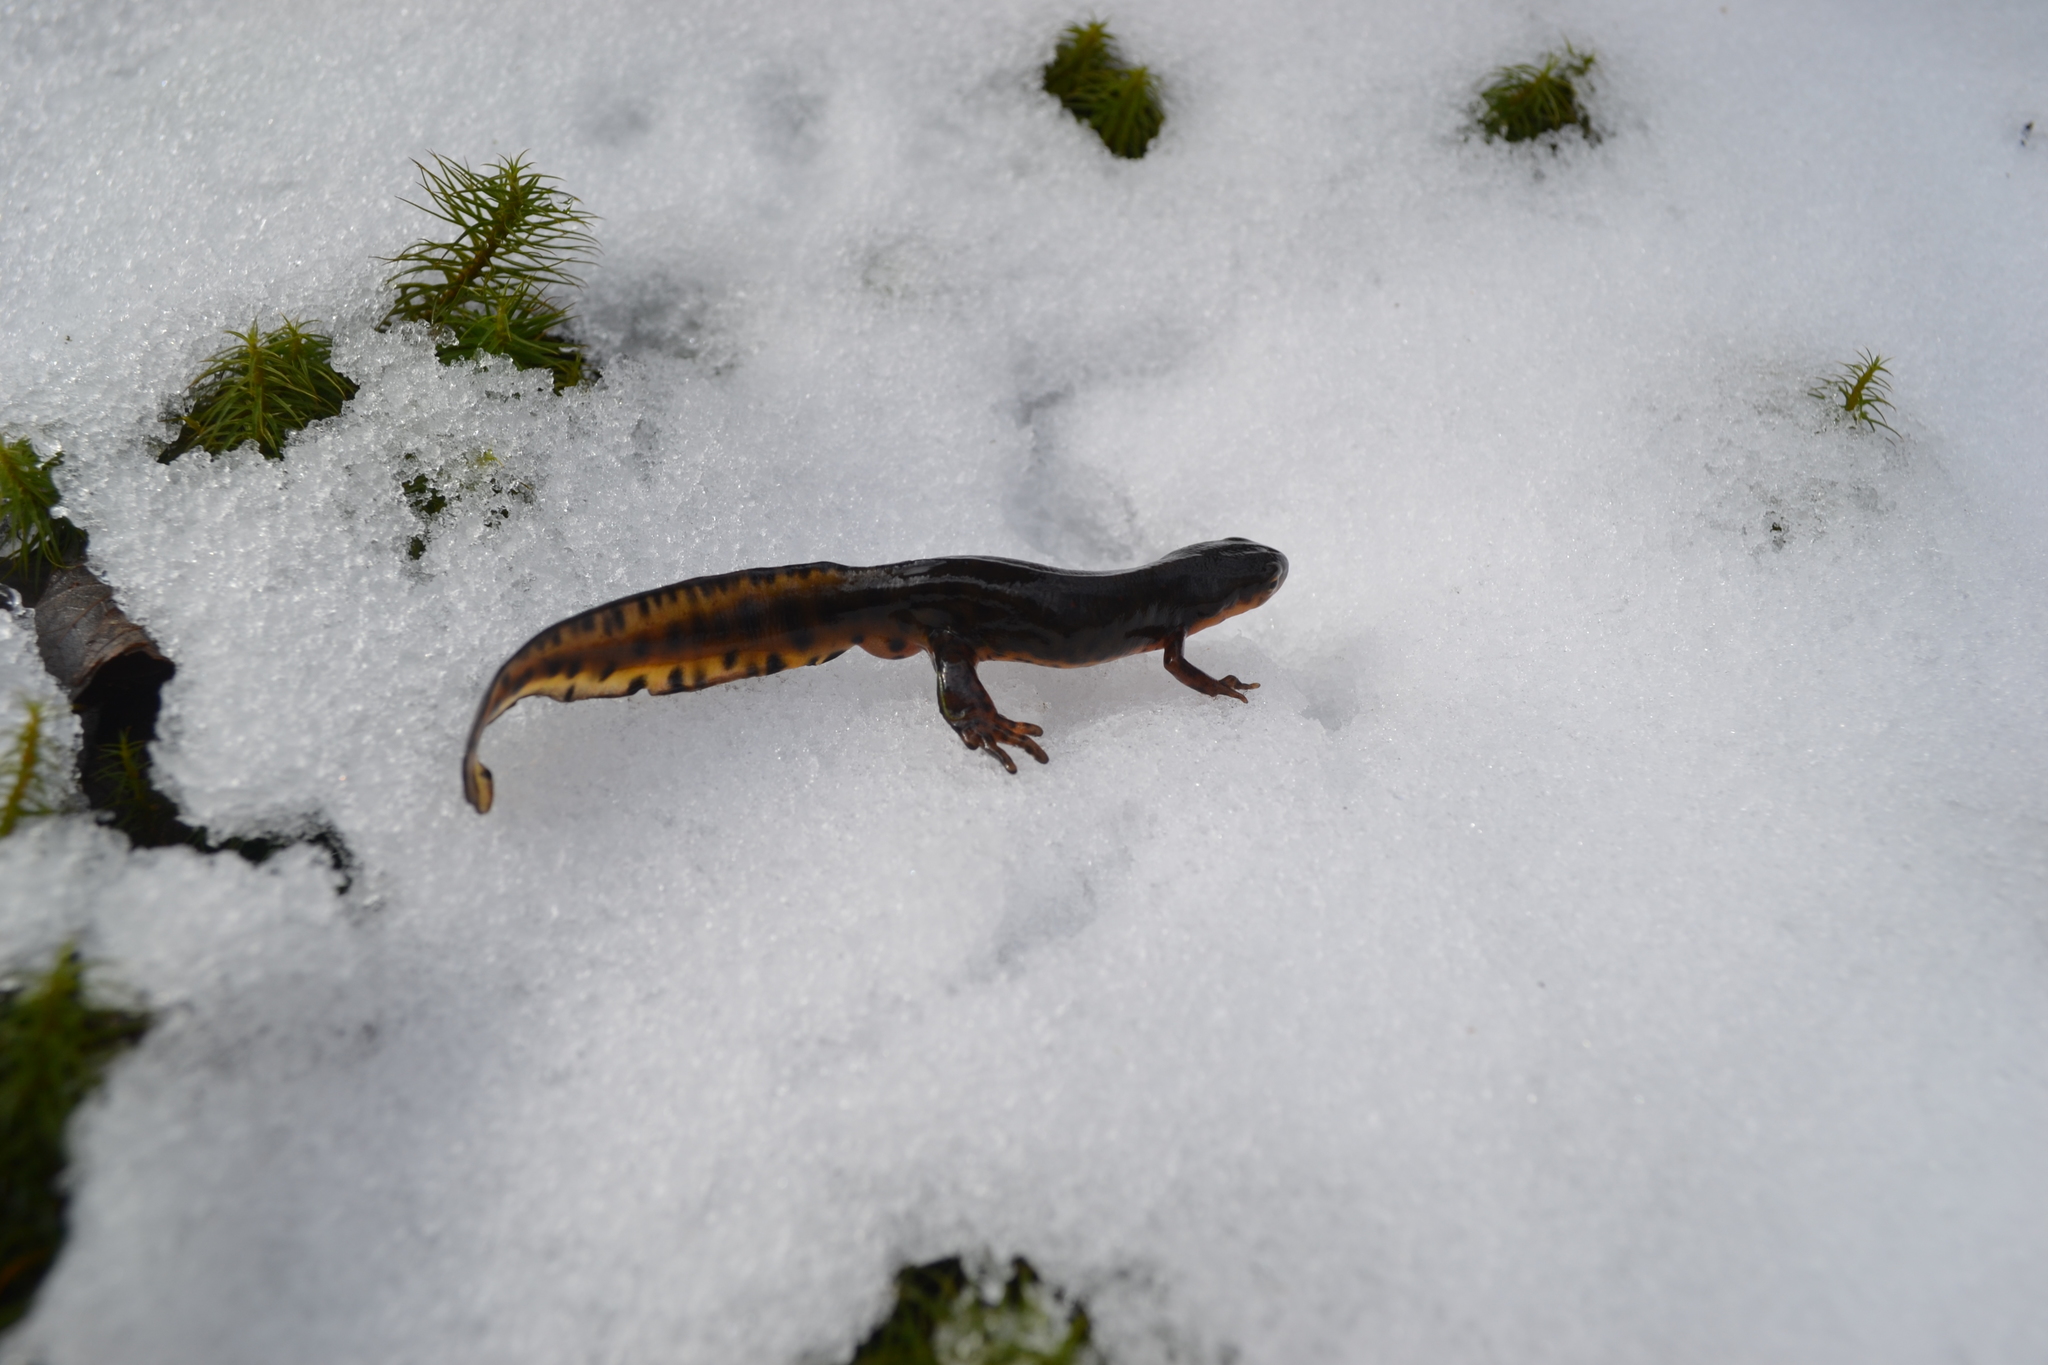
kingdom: Animalia
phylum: Chordata
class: Amphibia
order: Caudata
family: Salamandridae
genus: Notophthalmus
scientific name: Notophthalmus viridescens
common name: Eastern newt
